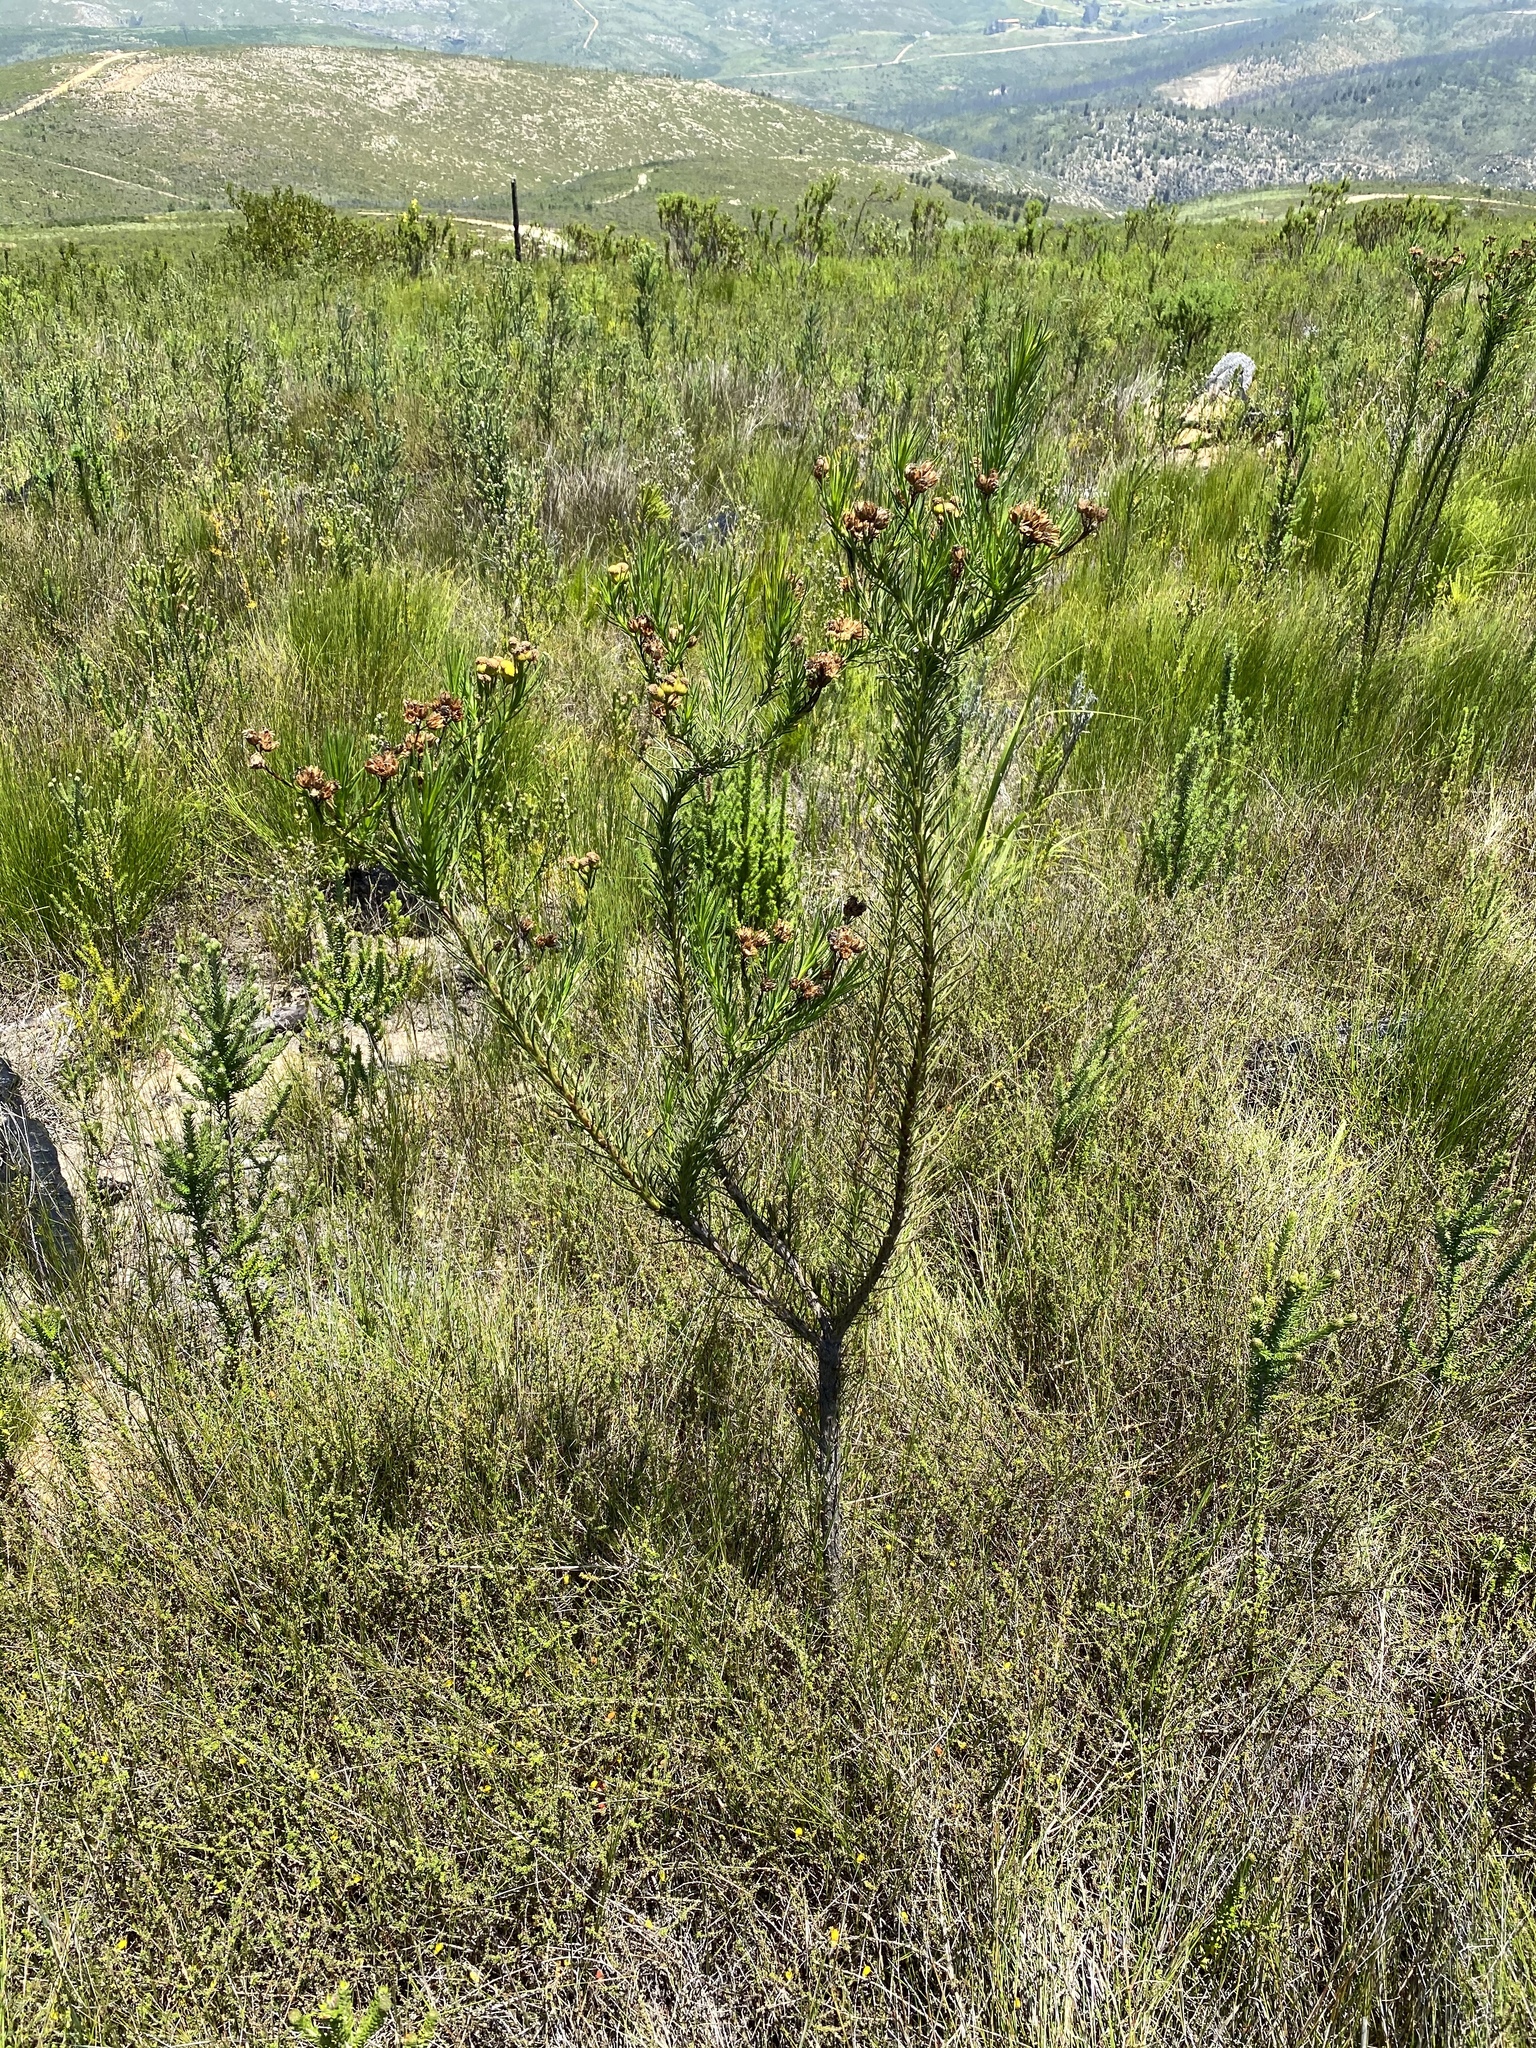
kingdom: Plantae
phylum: Tracheophyta
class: Magnoliopsida
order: Asterales
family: Asteraceae
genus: Athanasia
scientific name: Athanasia linifolia
